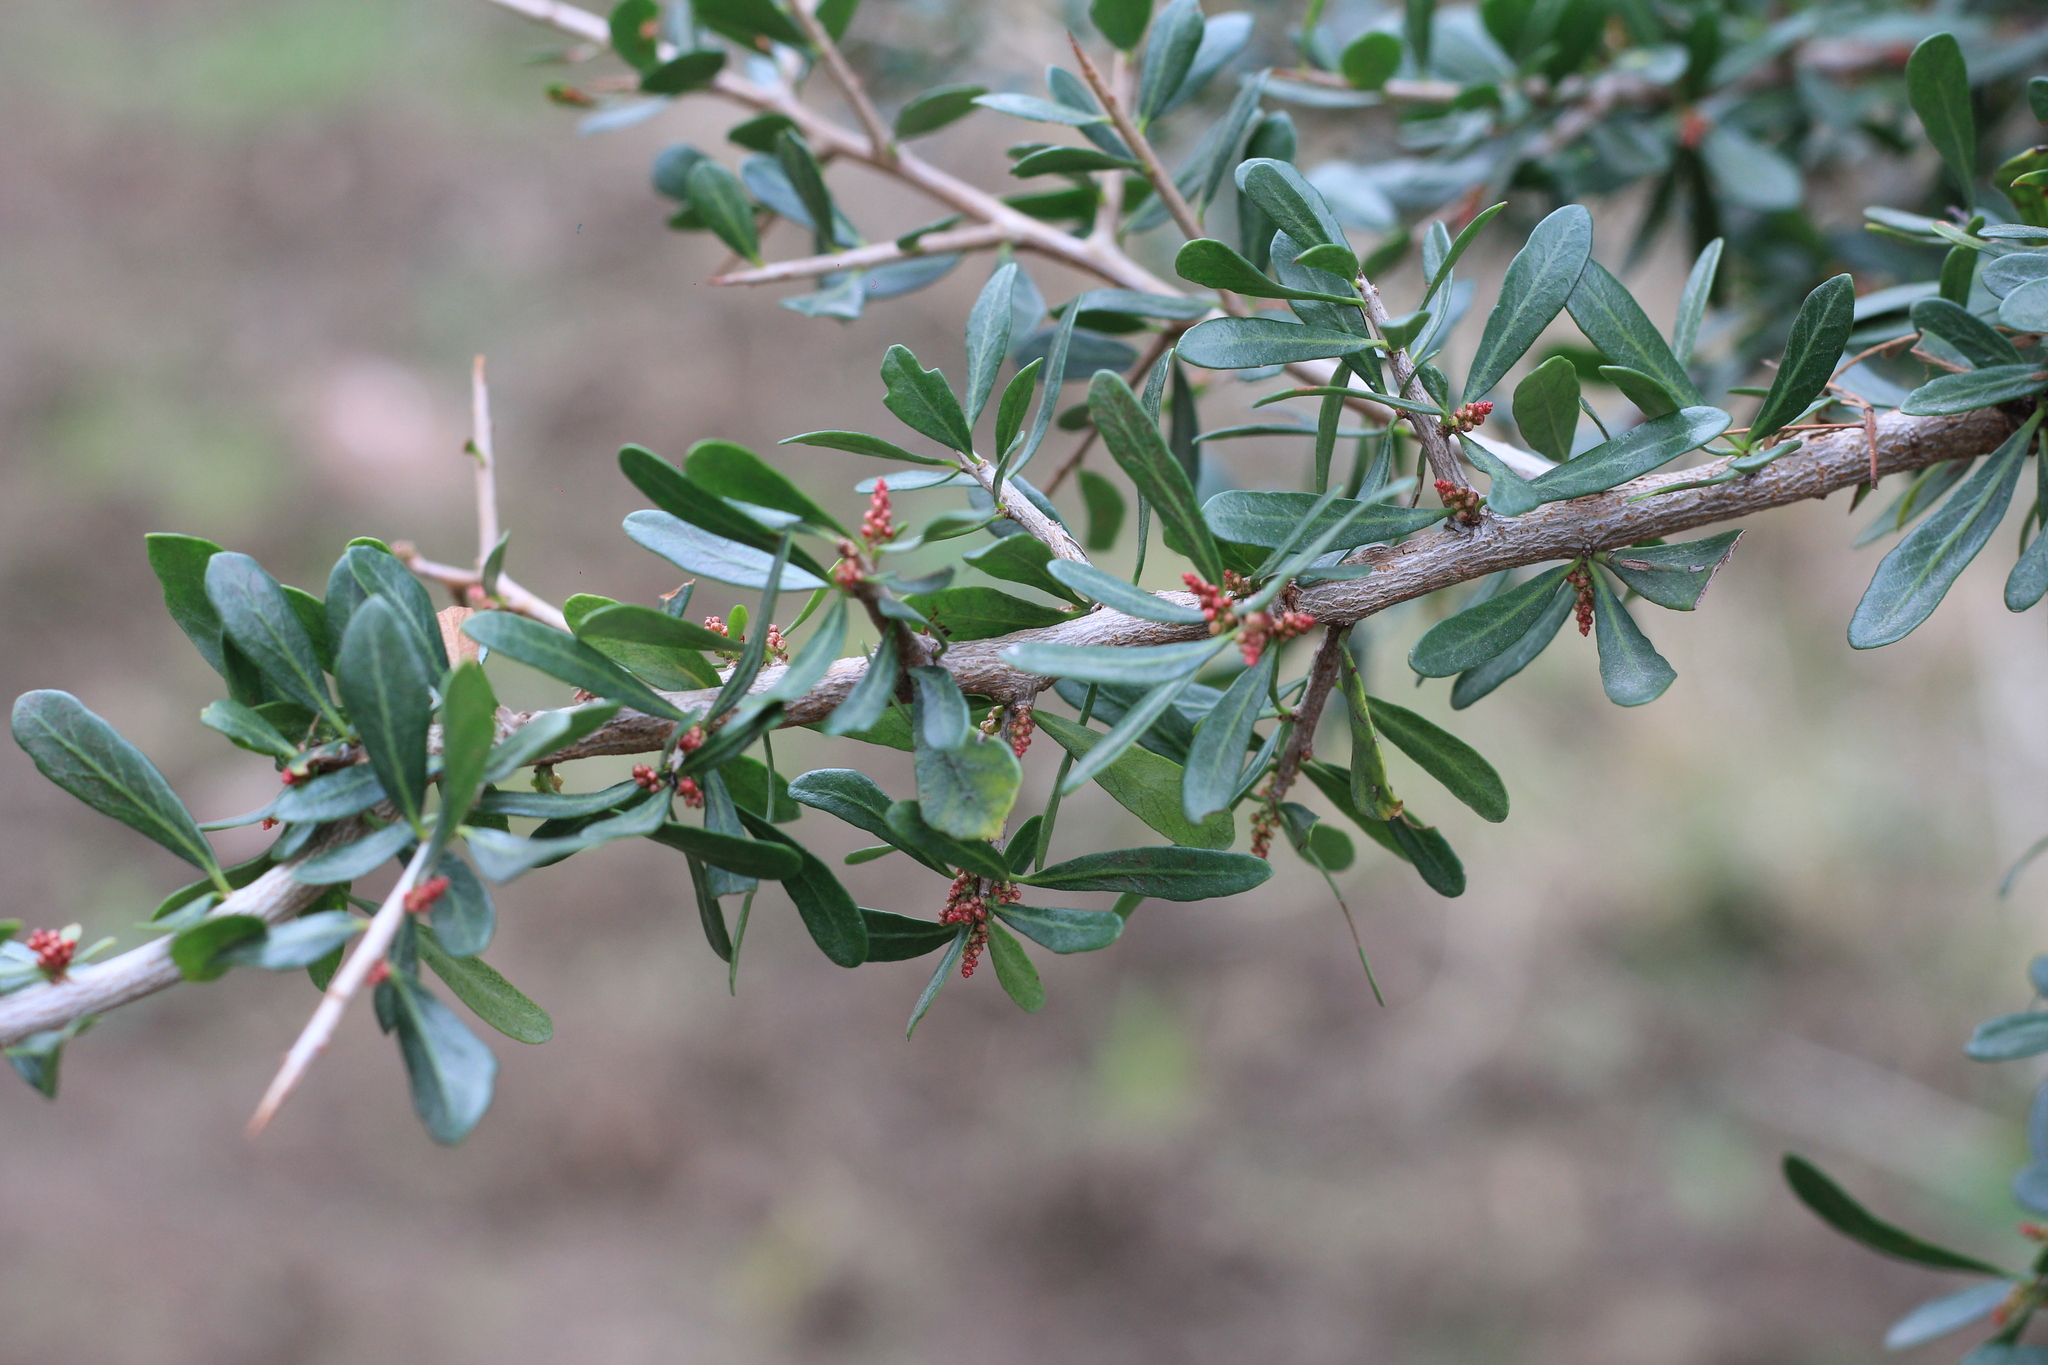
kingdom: Plantae
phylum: Tracheophyta
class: Magnoliopsida
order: Sapindales
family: Anacardiaceae
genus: Schinus
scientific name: Schinus praecox
